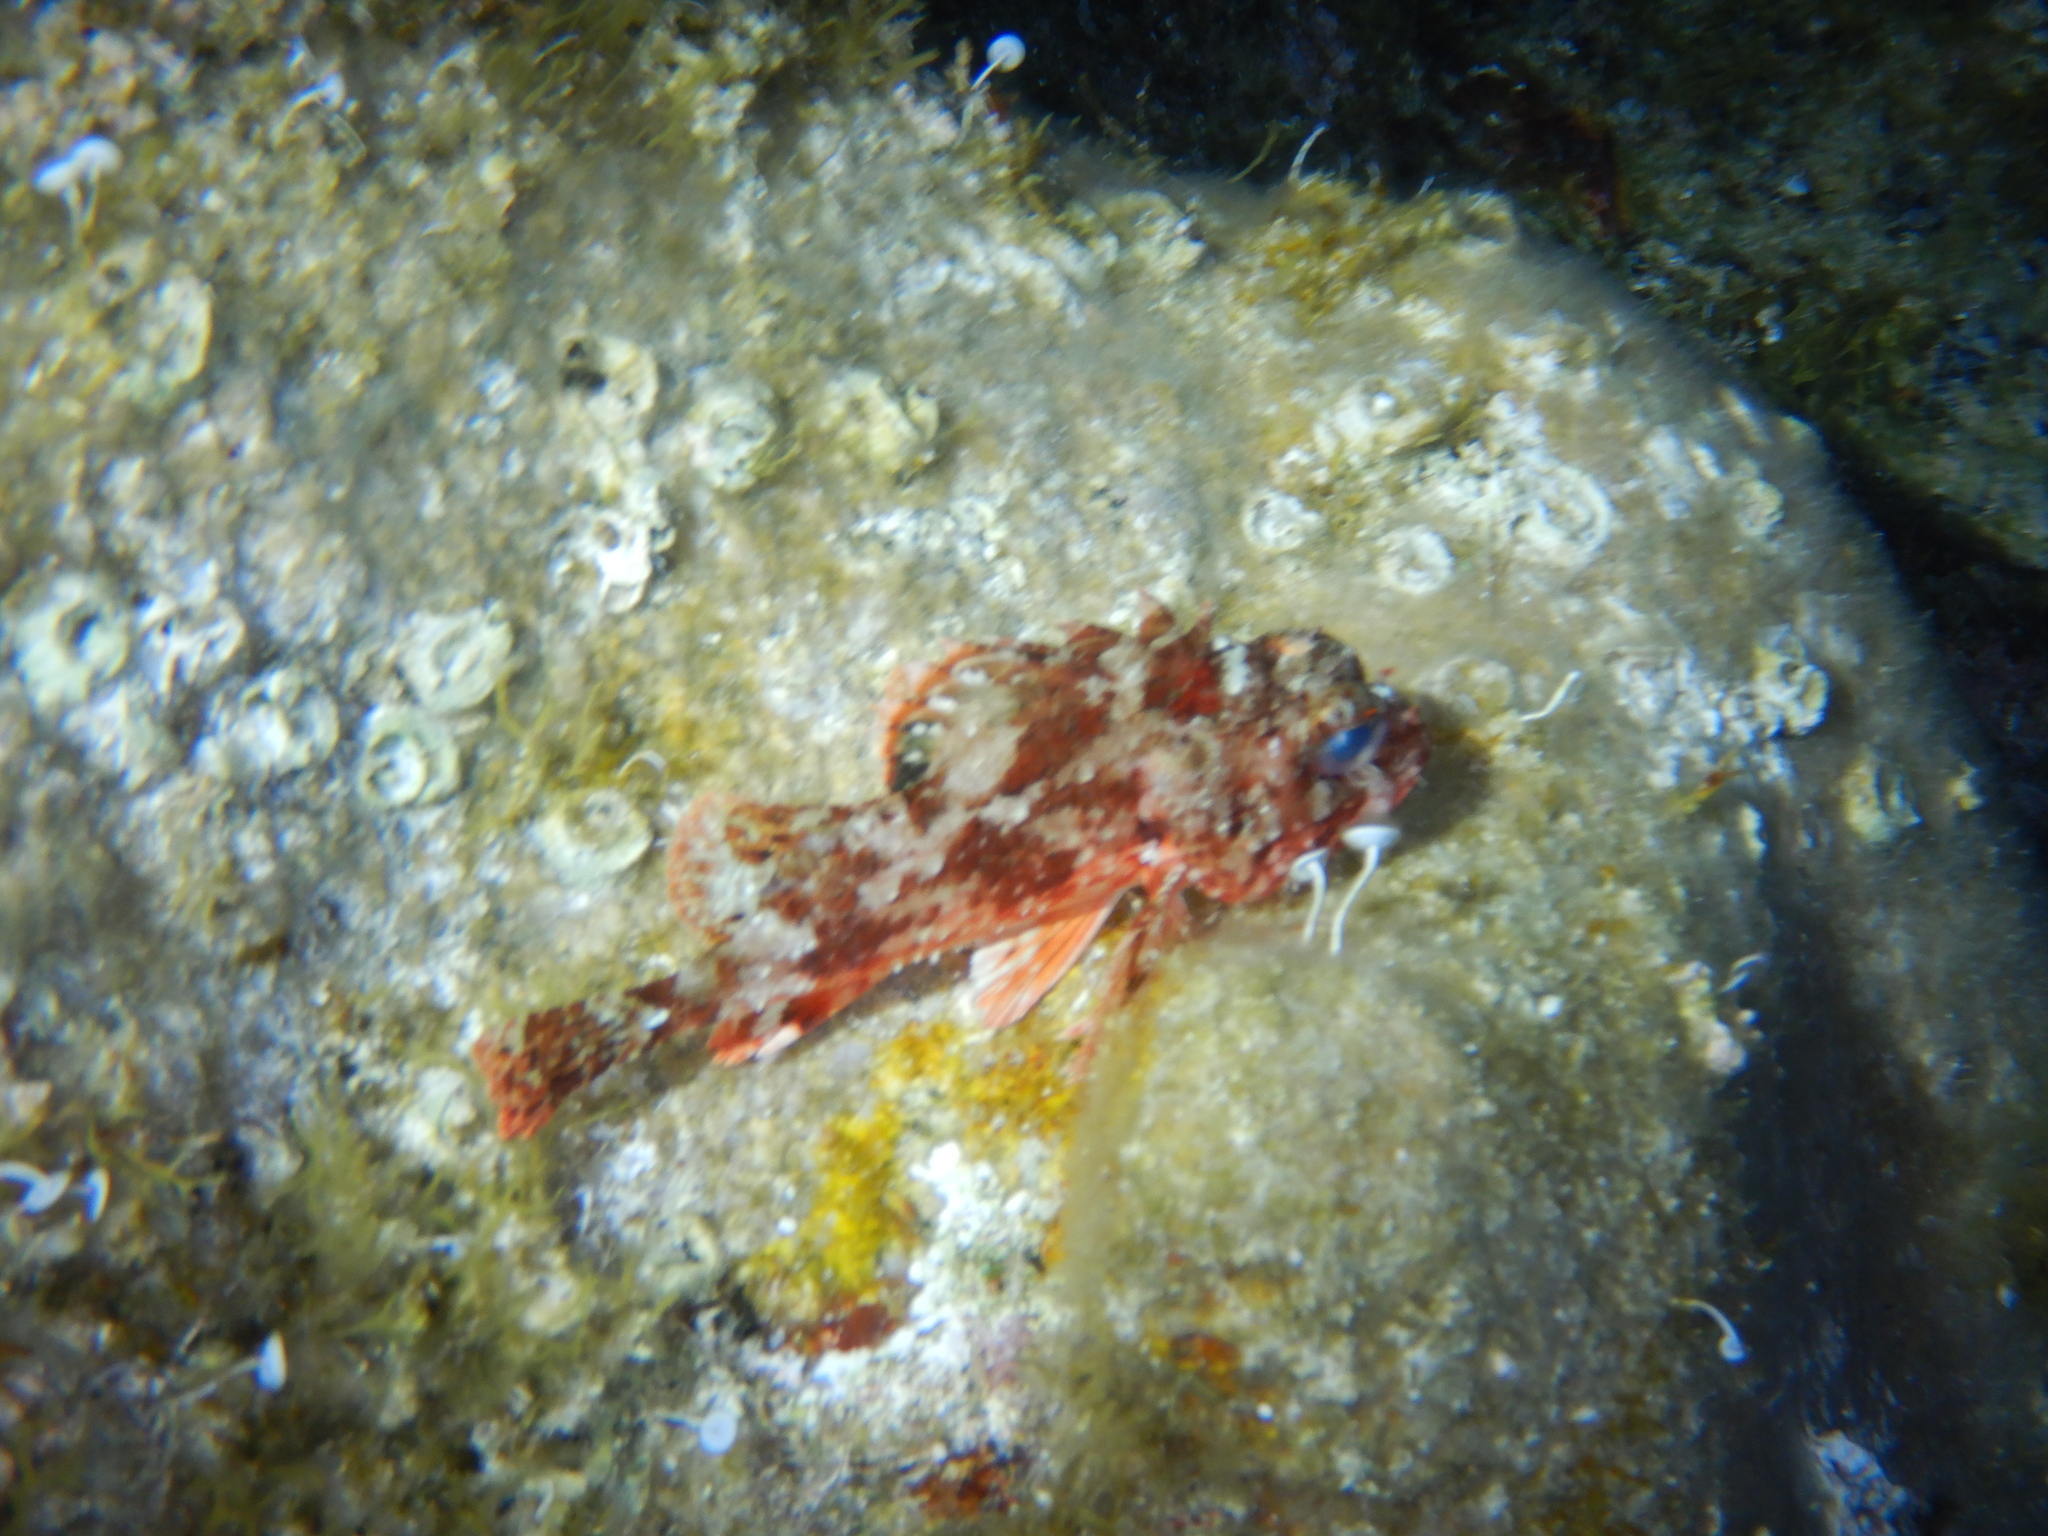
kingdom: Animalia
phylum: Chordata
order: Scorpaeniformes
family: Scorpaenidae
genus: Scorpaena
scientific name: Scorpaena notata
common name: Small red scorpionfish
